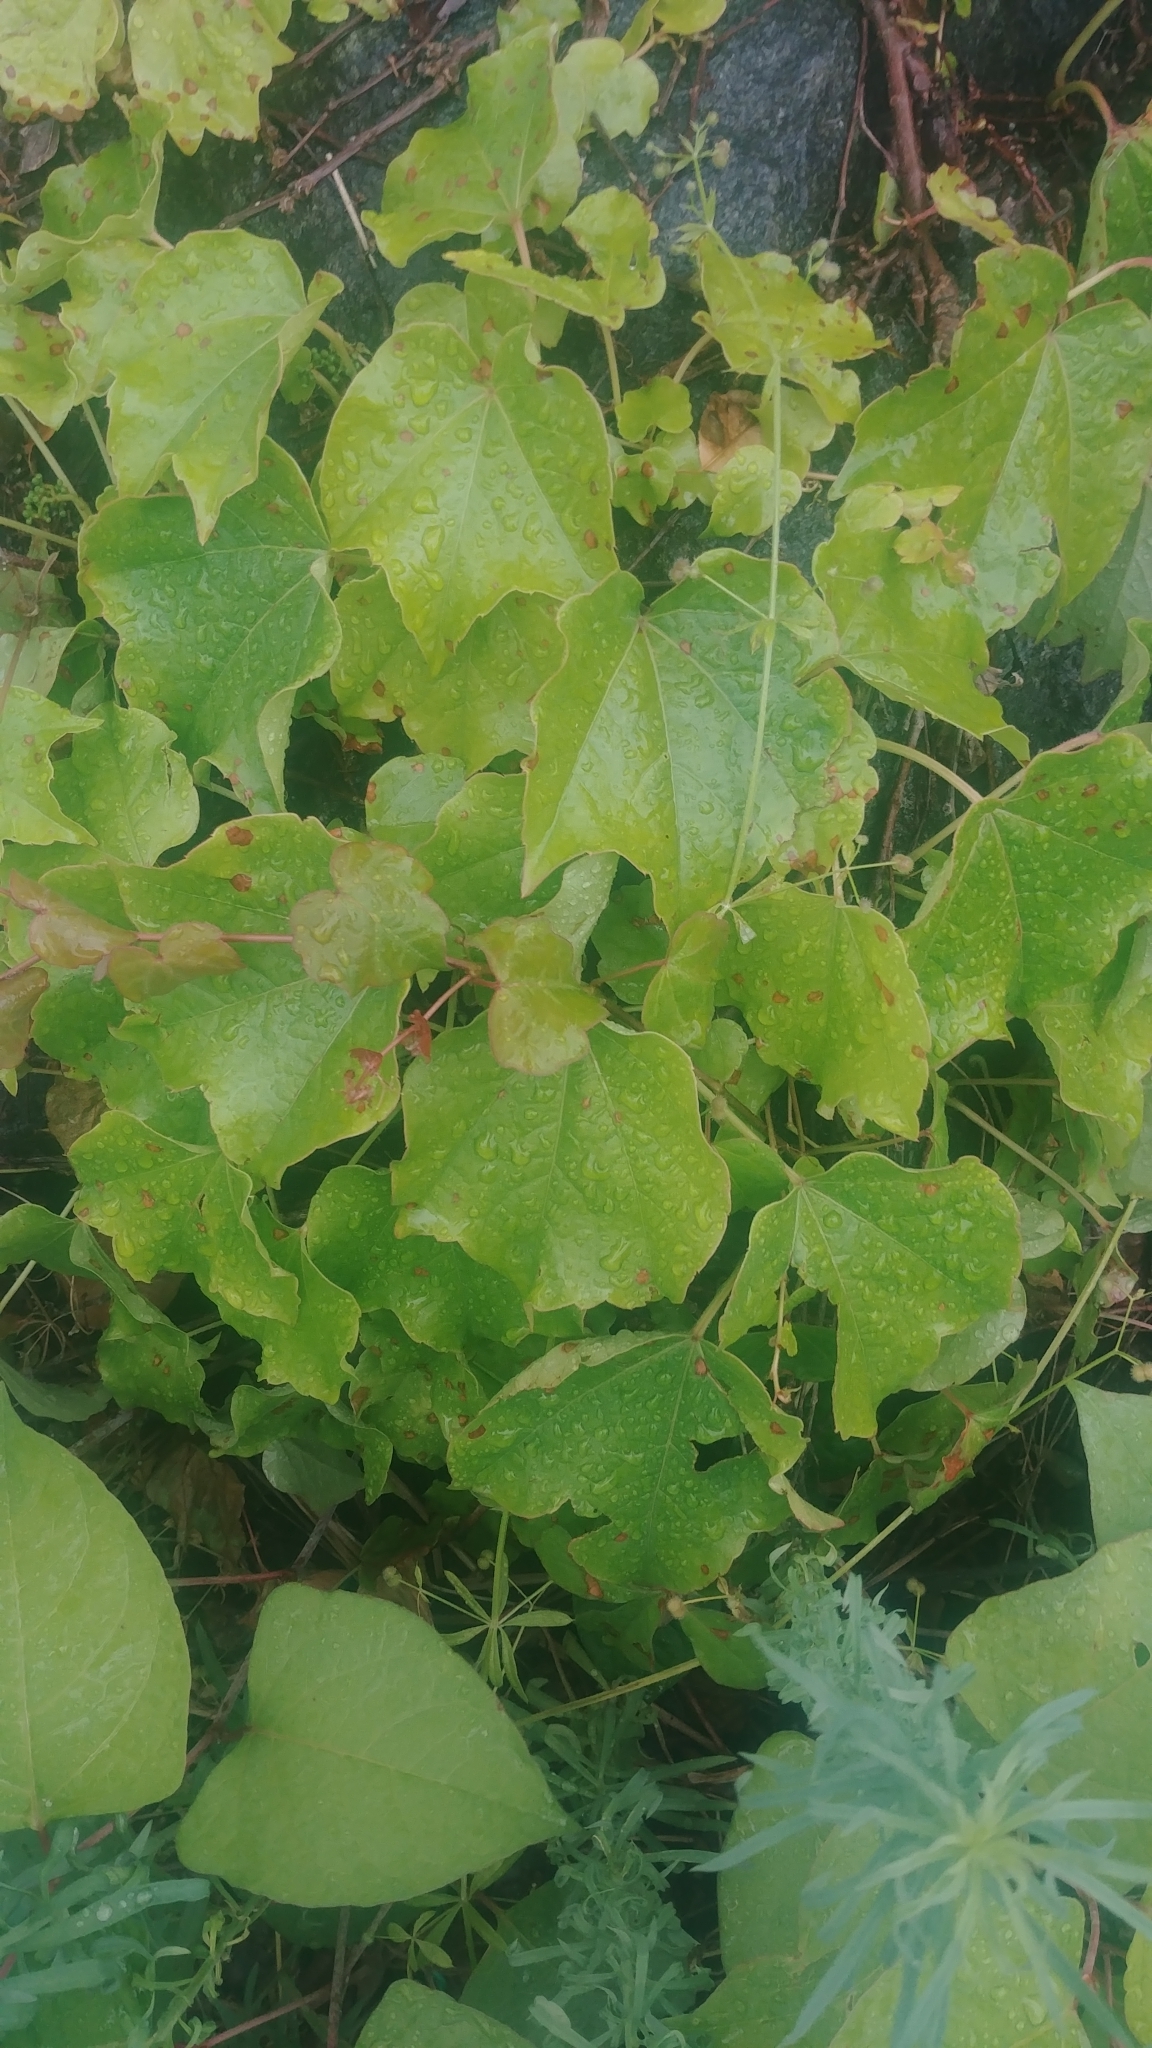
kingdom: Plantae
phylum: Tracheophyta
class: Magnoliopsida
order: Vitales
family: Vitaceae
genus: Parthenocissus
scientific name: Parthenocissus tricuspidata
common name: Boston ivy
